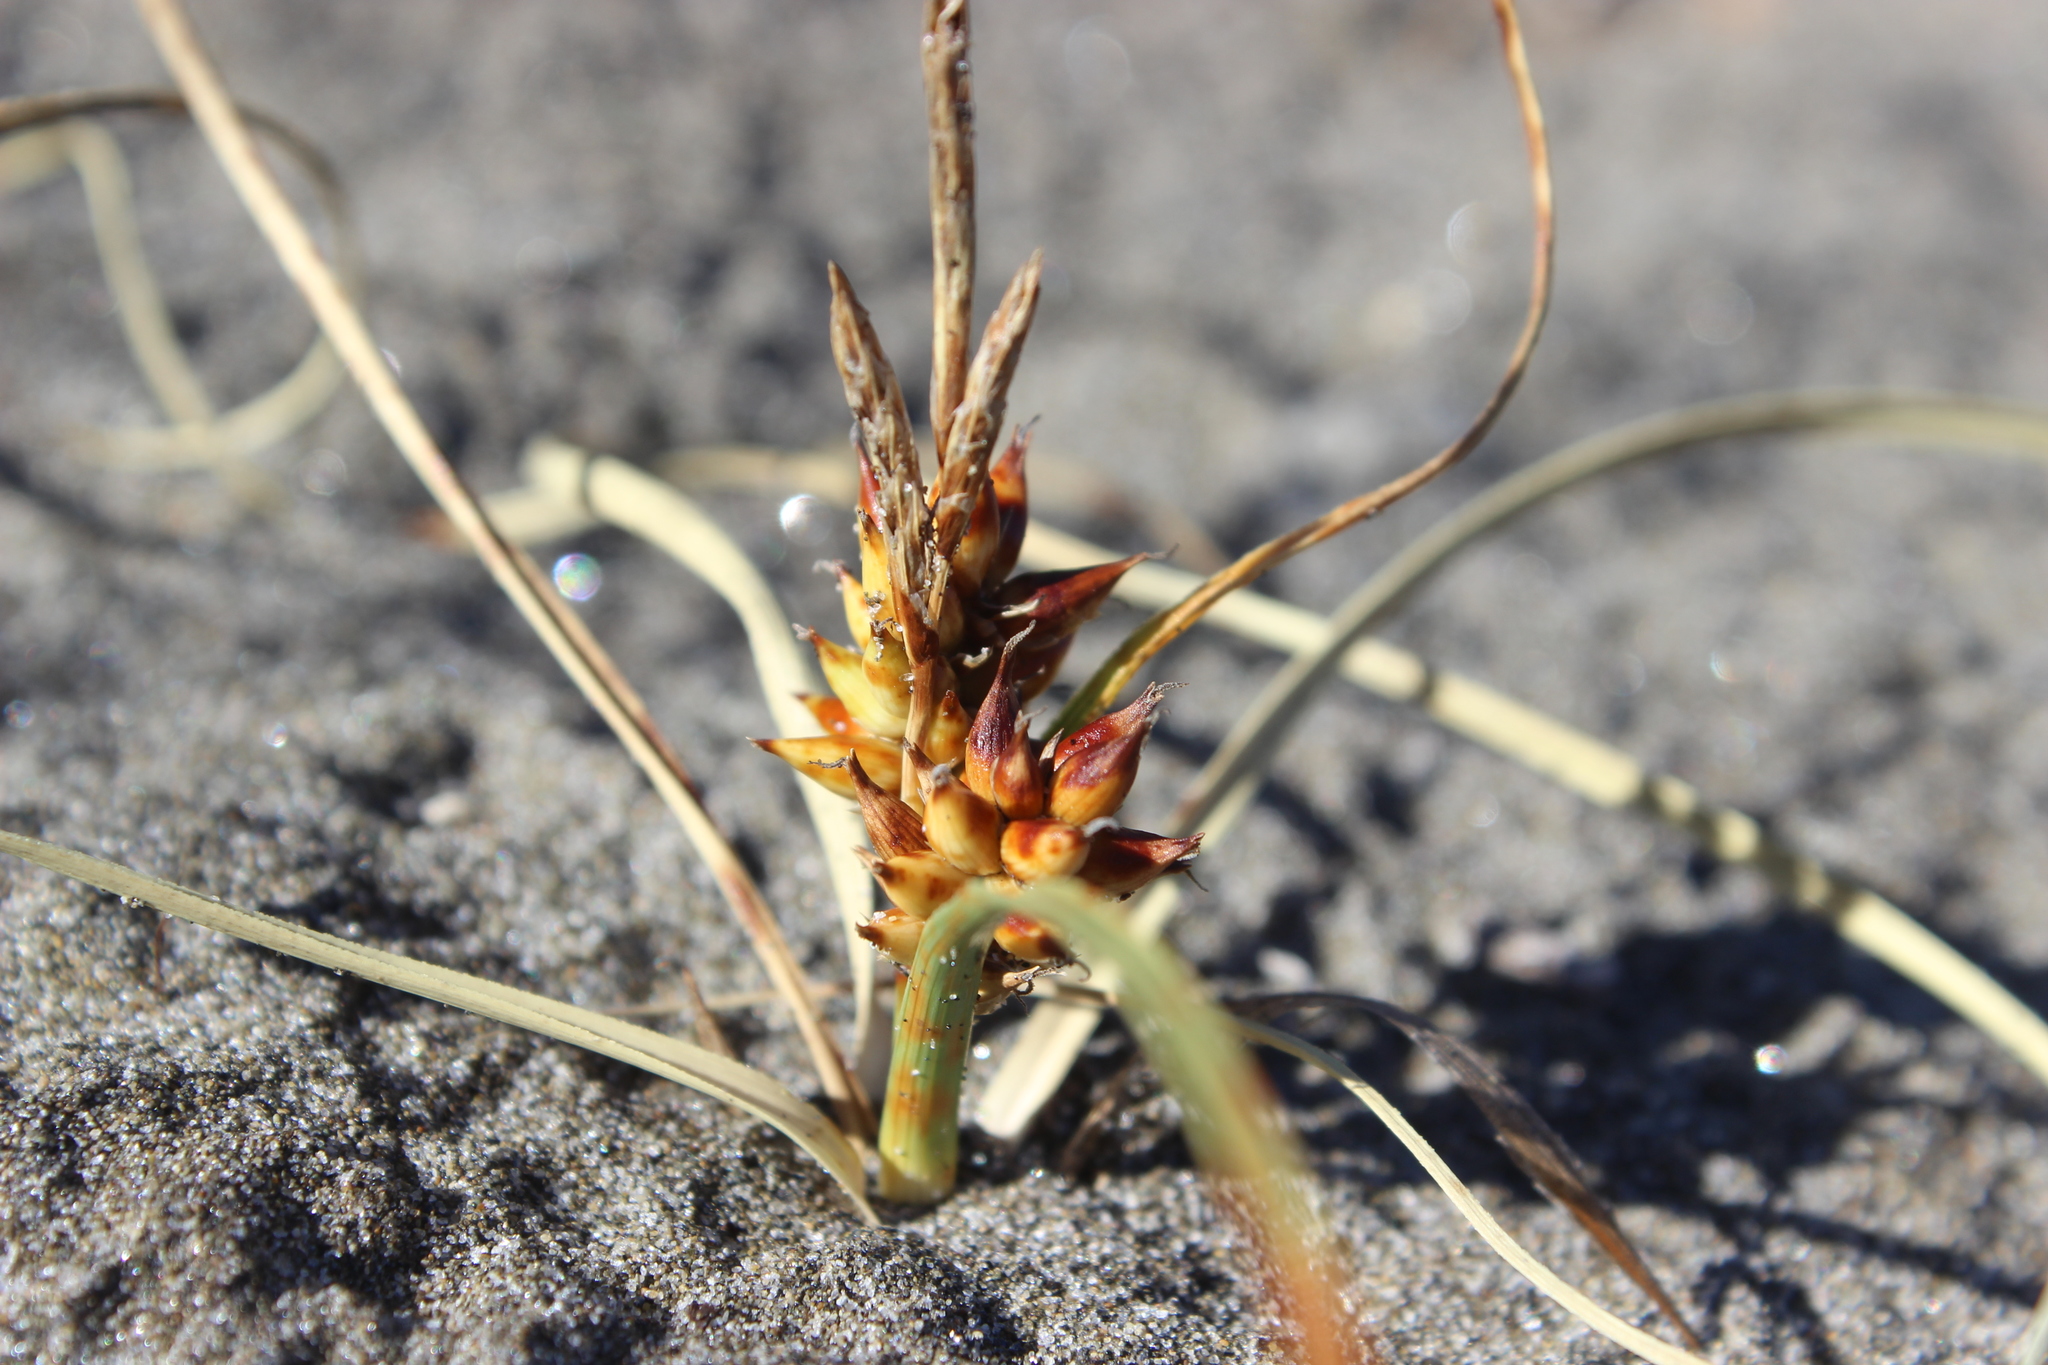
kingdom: Plantae
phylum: Tracheophyta
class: Liliopsida
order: Poales
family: Cyperaceae
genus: Carex
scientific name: Carex pumila
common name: Dwarf sedge
